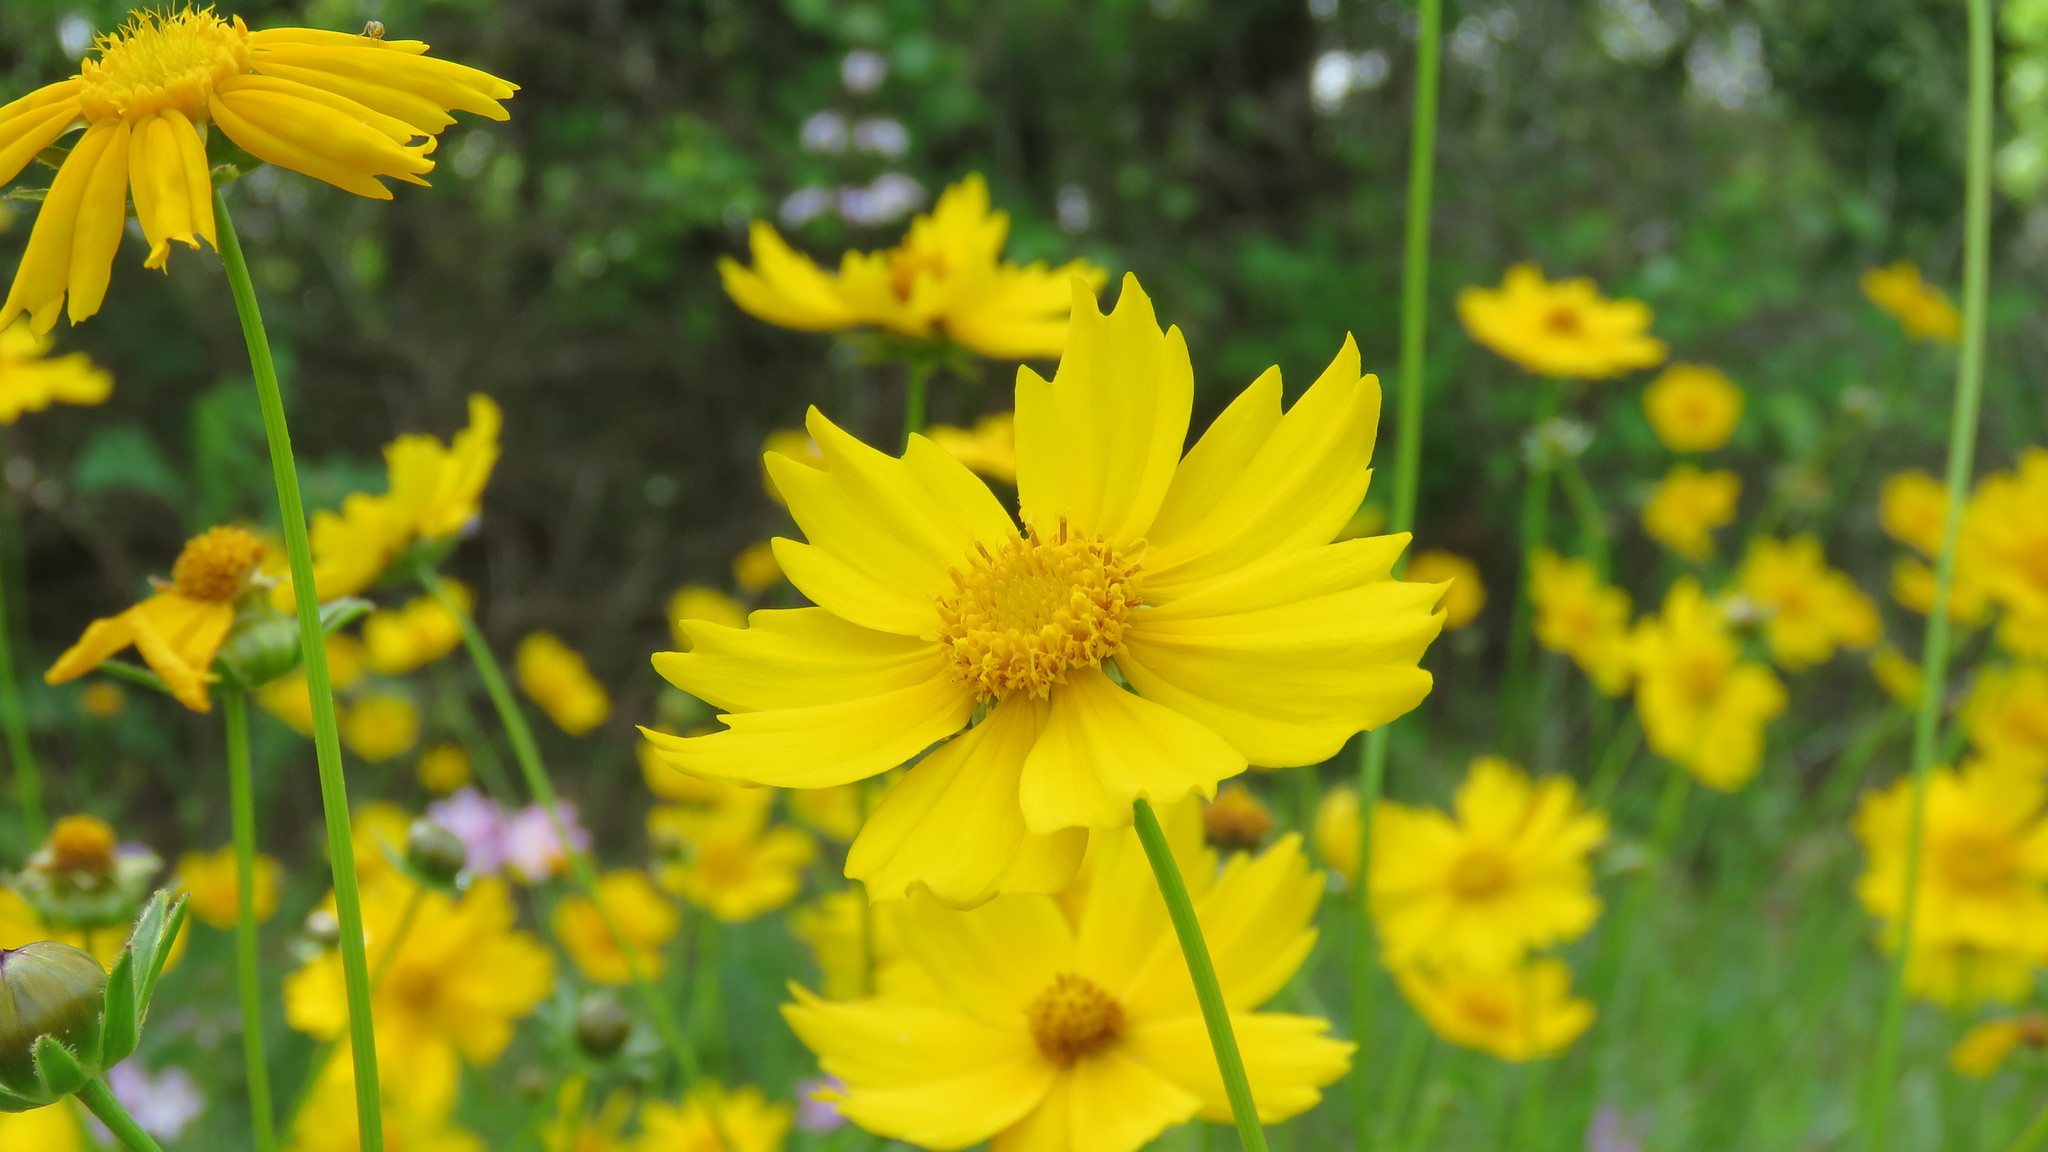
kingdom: Plantae
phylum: Tracheophyta
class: Magnoliopsida
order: Asterales
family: Asteraceae
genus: Coreopsis
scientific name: Coreopsis lanceolata
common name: Garden coreopsis
